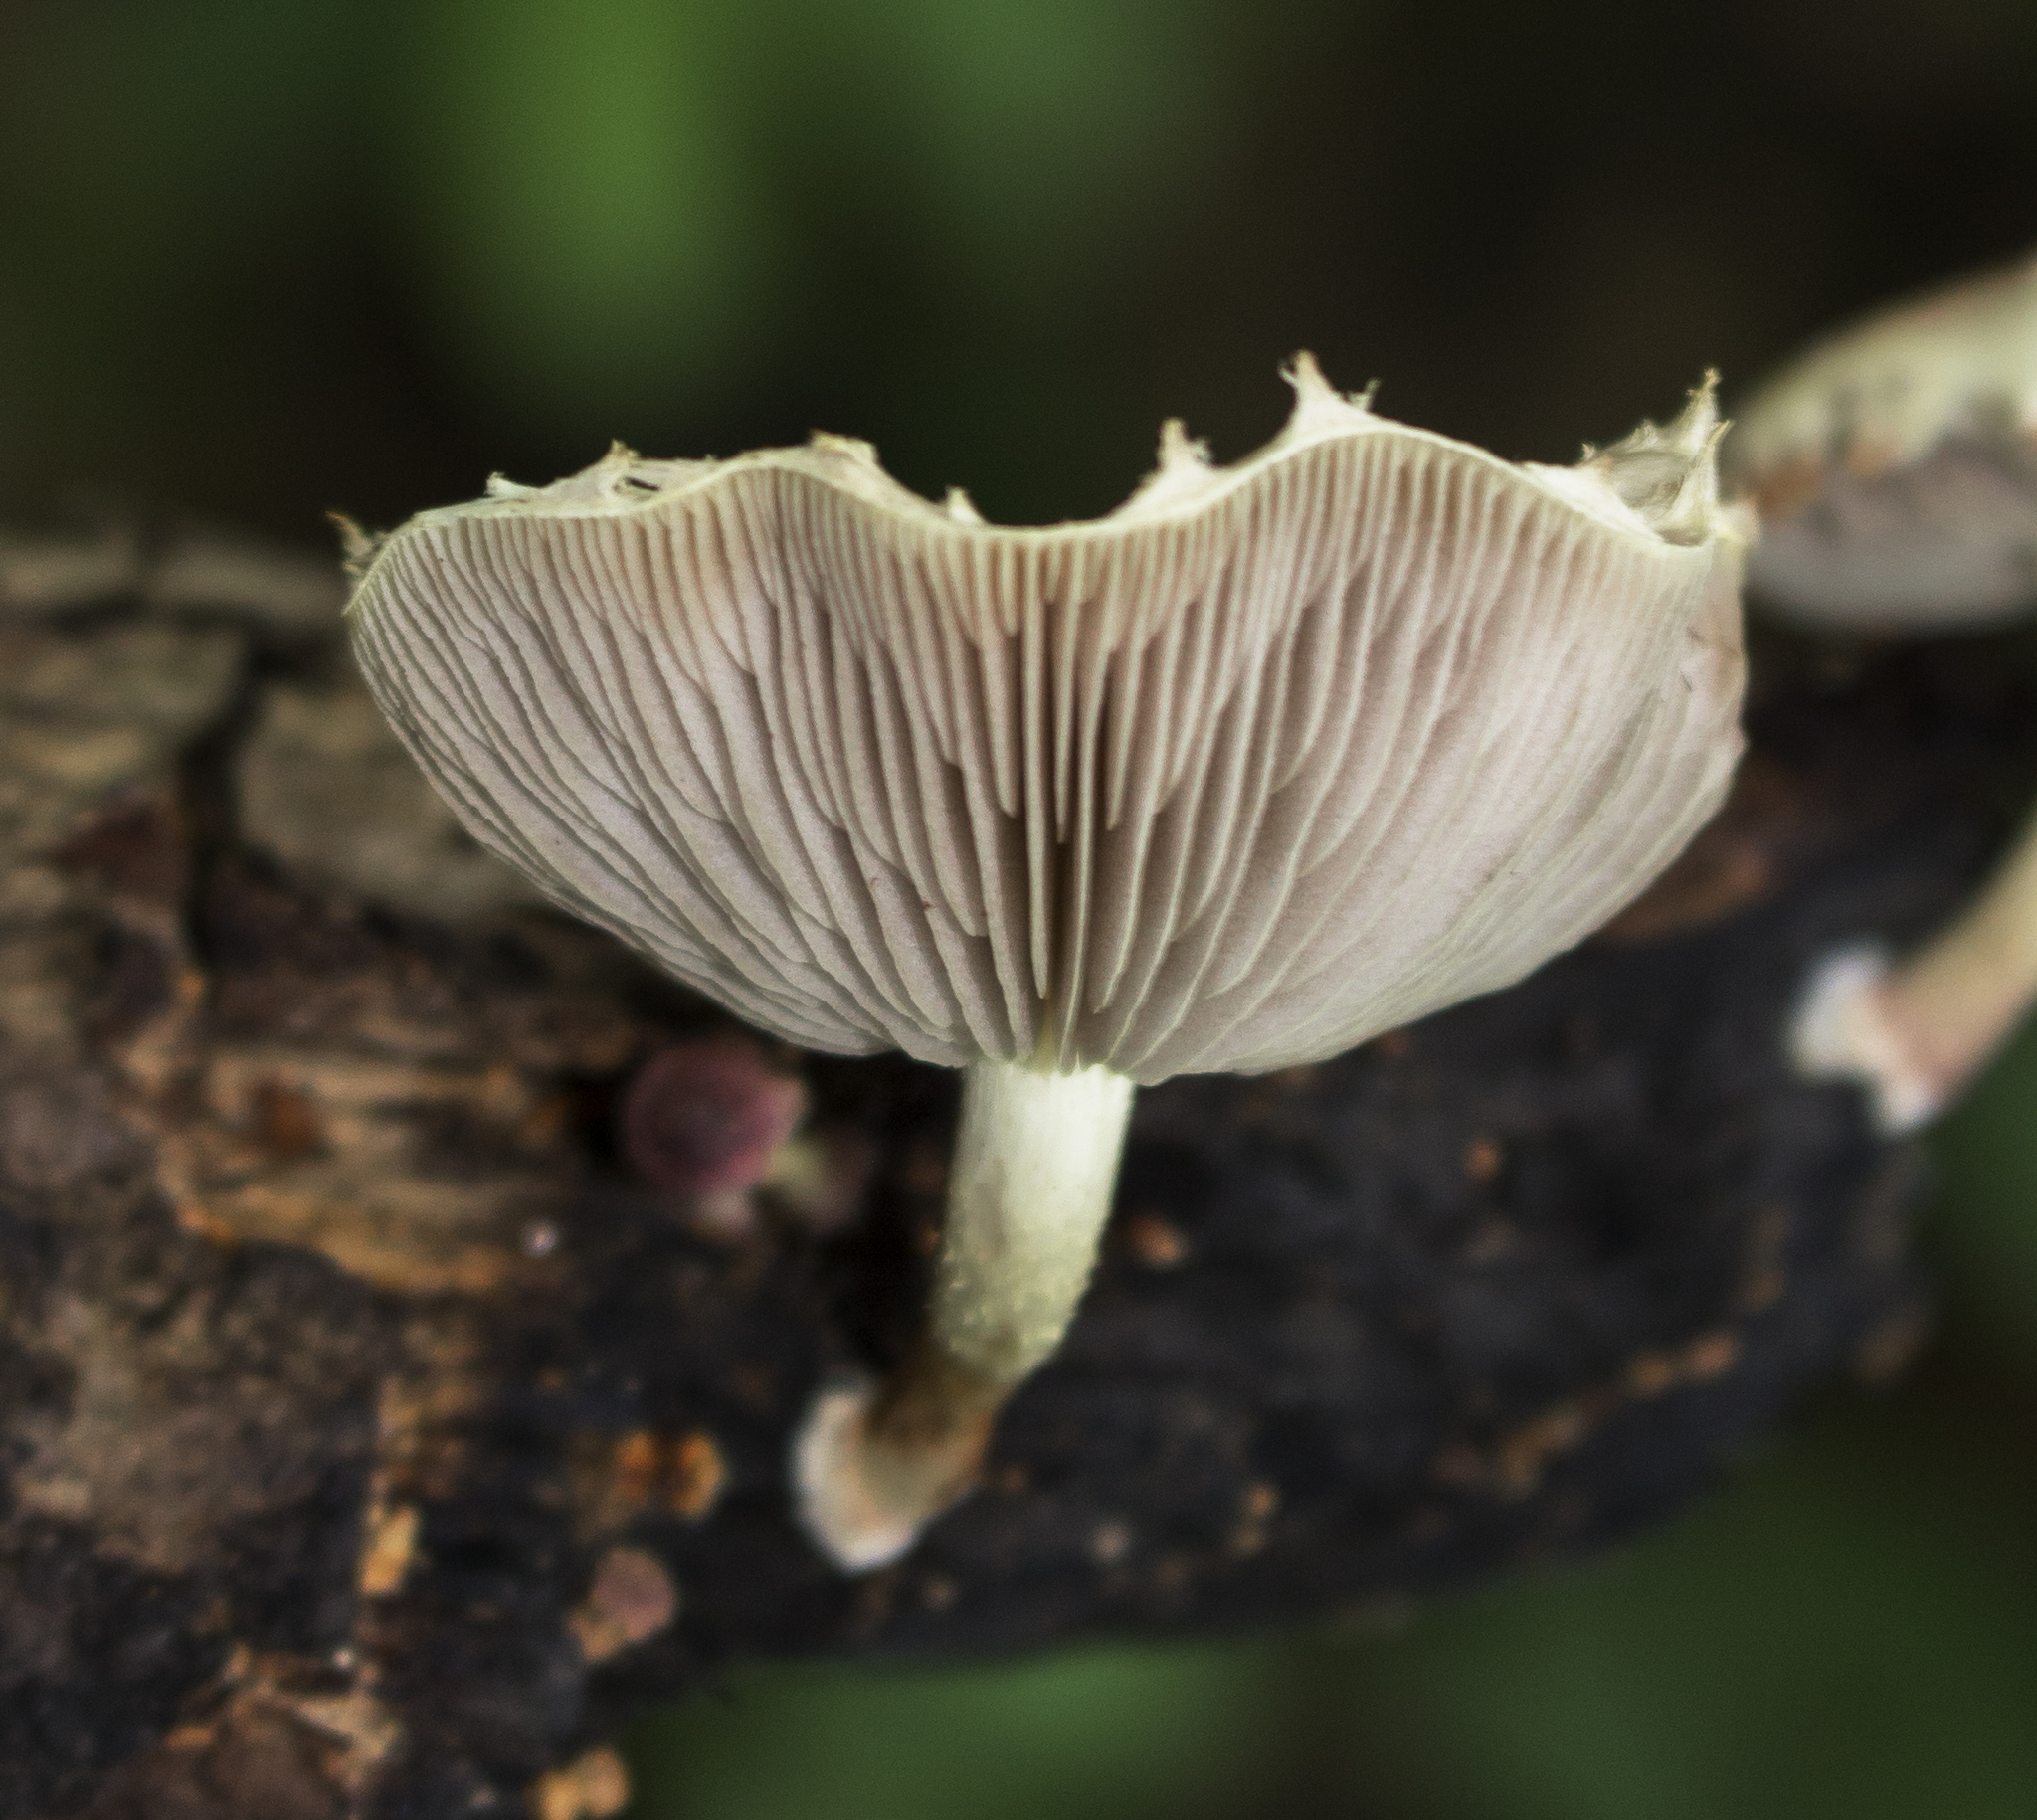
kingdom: Fungi
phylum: Basidiomycota
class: Agaricomycetes
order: Agaricales
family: Strophariaceae
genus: Pholiota
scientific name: Pholiota polychroa
